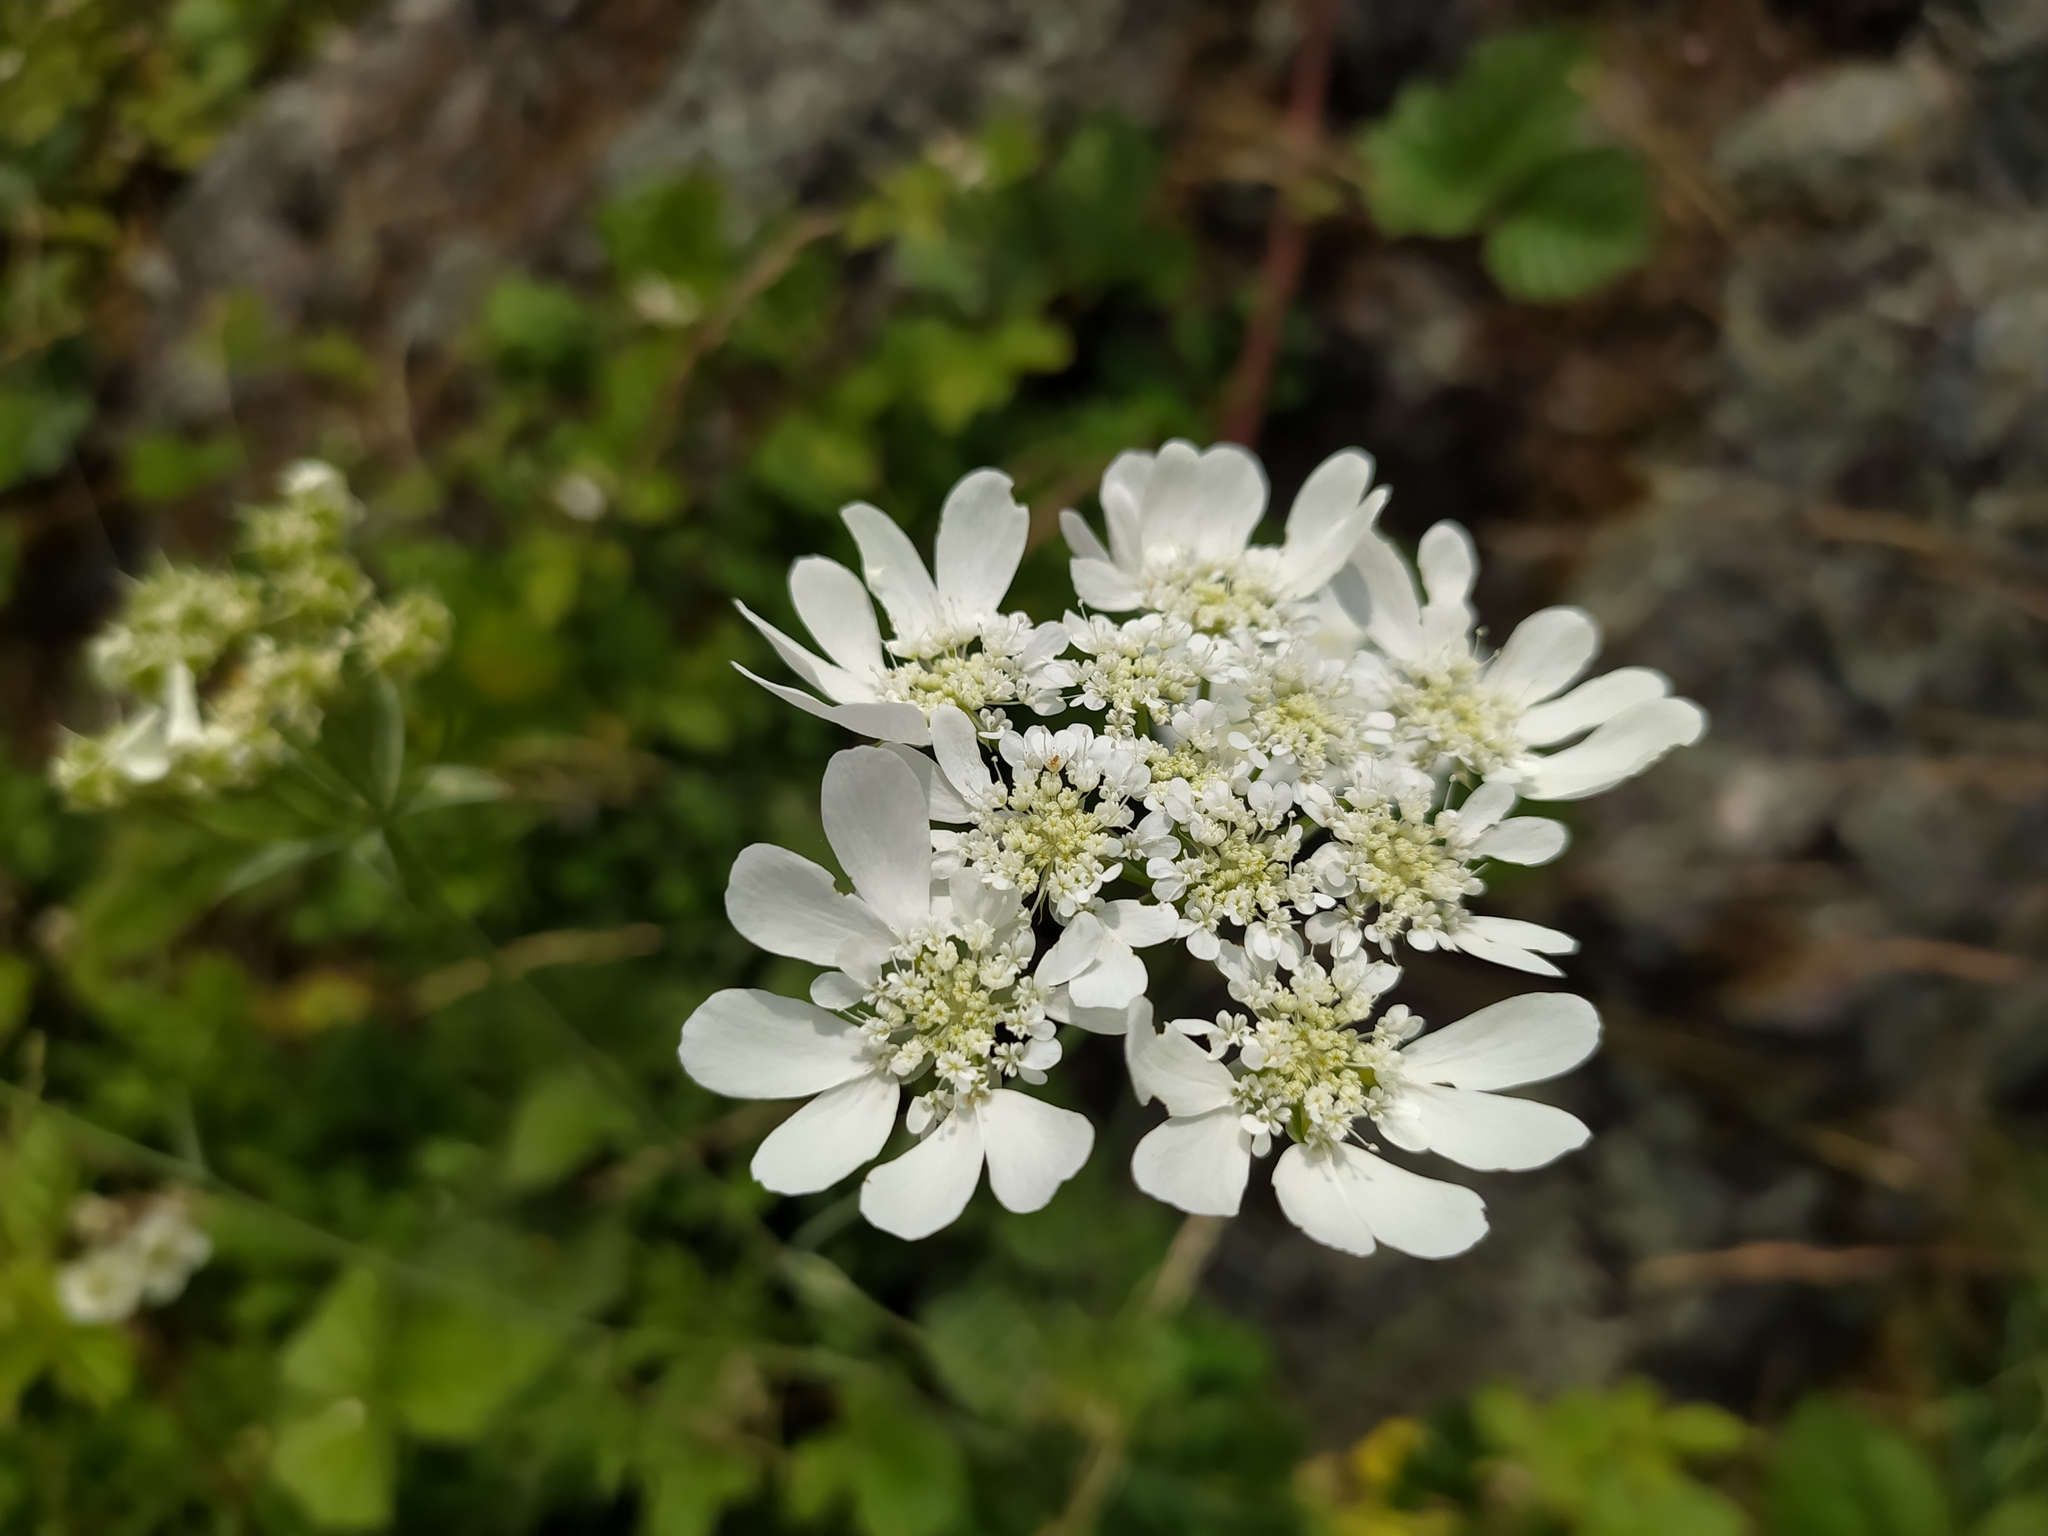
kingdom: Plantae
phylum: Tracheophyta
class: Magnoliopsida
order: Apiales
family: Apiaceae
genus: Orlaya
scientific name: Orlaya grandiflora
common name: White lace flower
